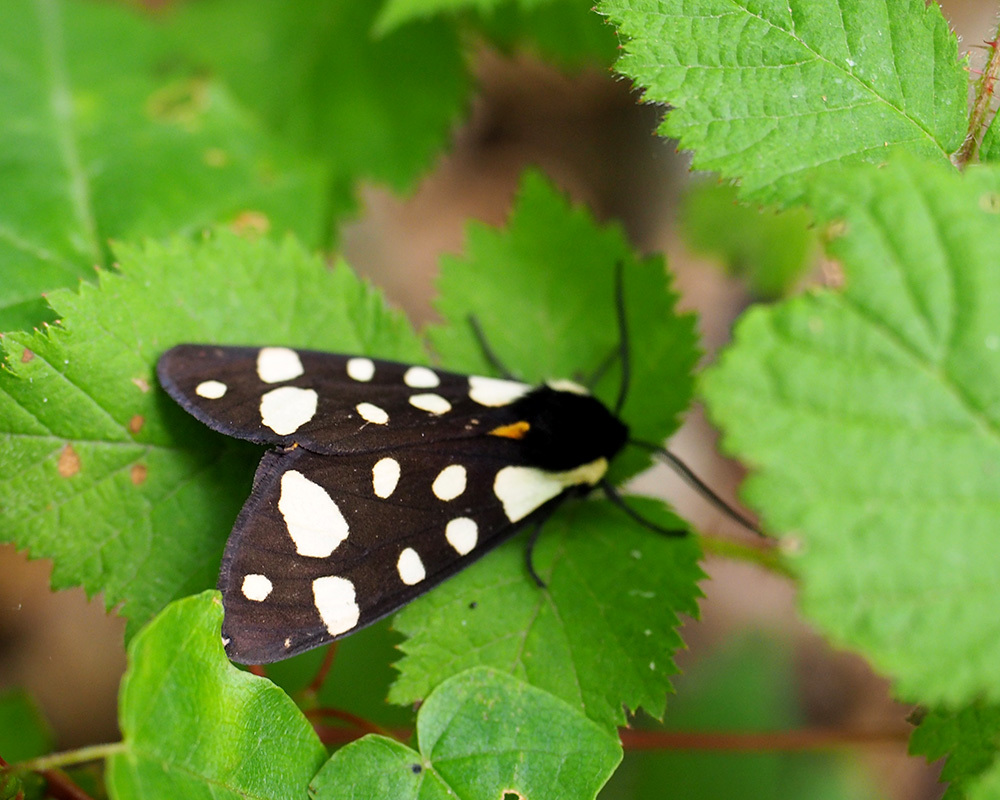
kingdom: Animalia
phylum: Arthropoda
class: Insecta
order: Lepidoptera
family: Erebidae
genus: Epicallia
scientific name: Epicallia villica
